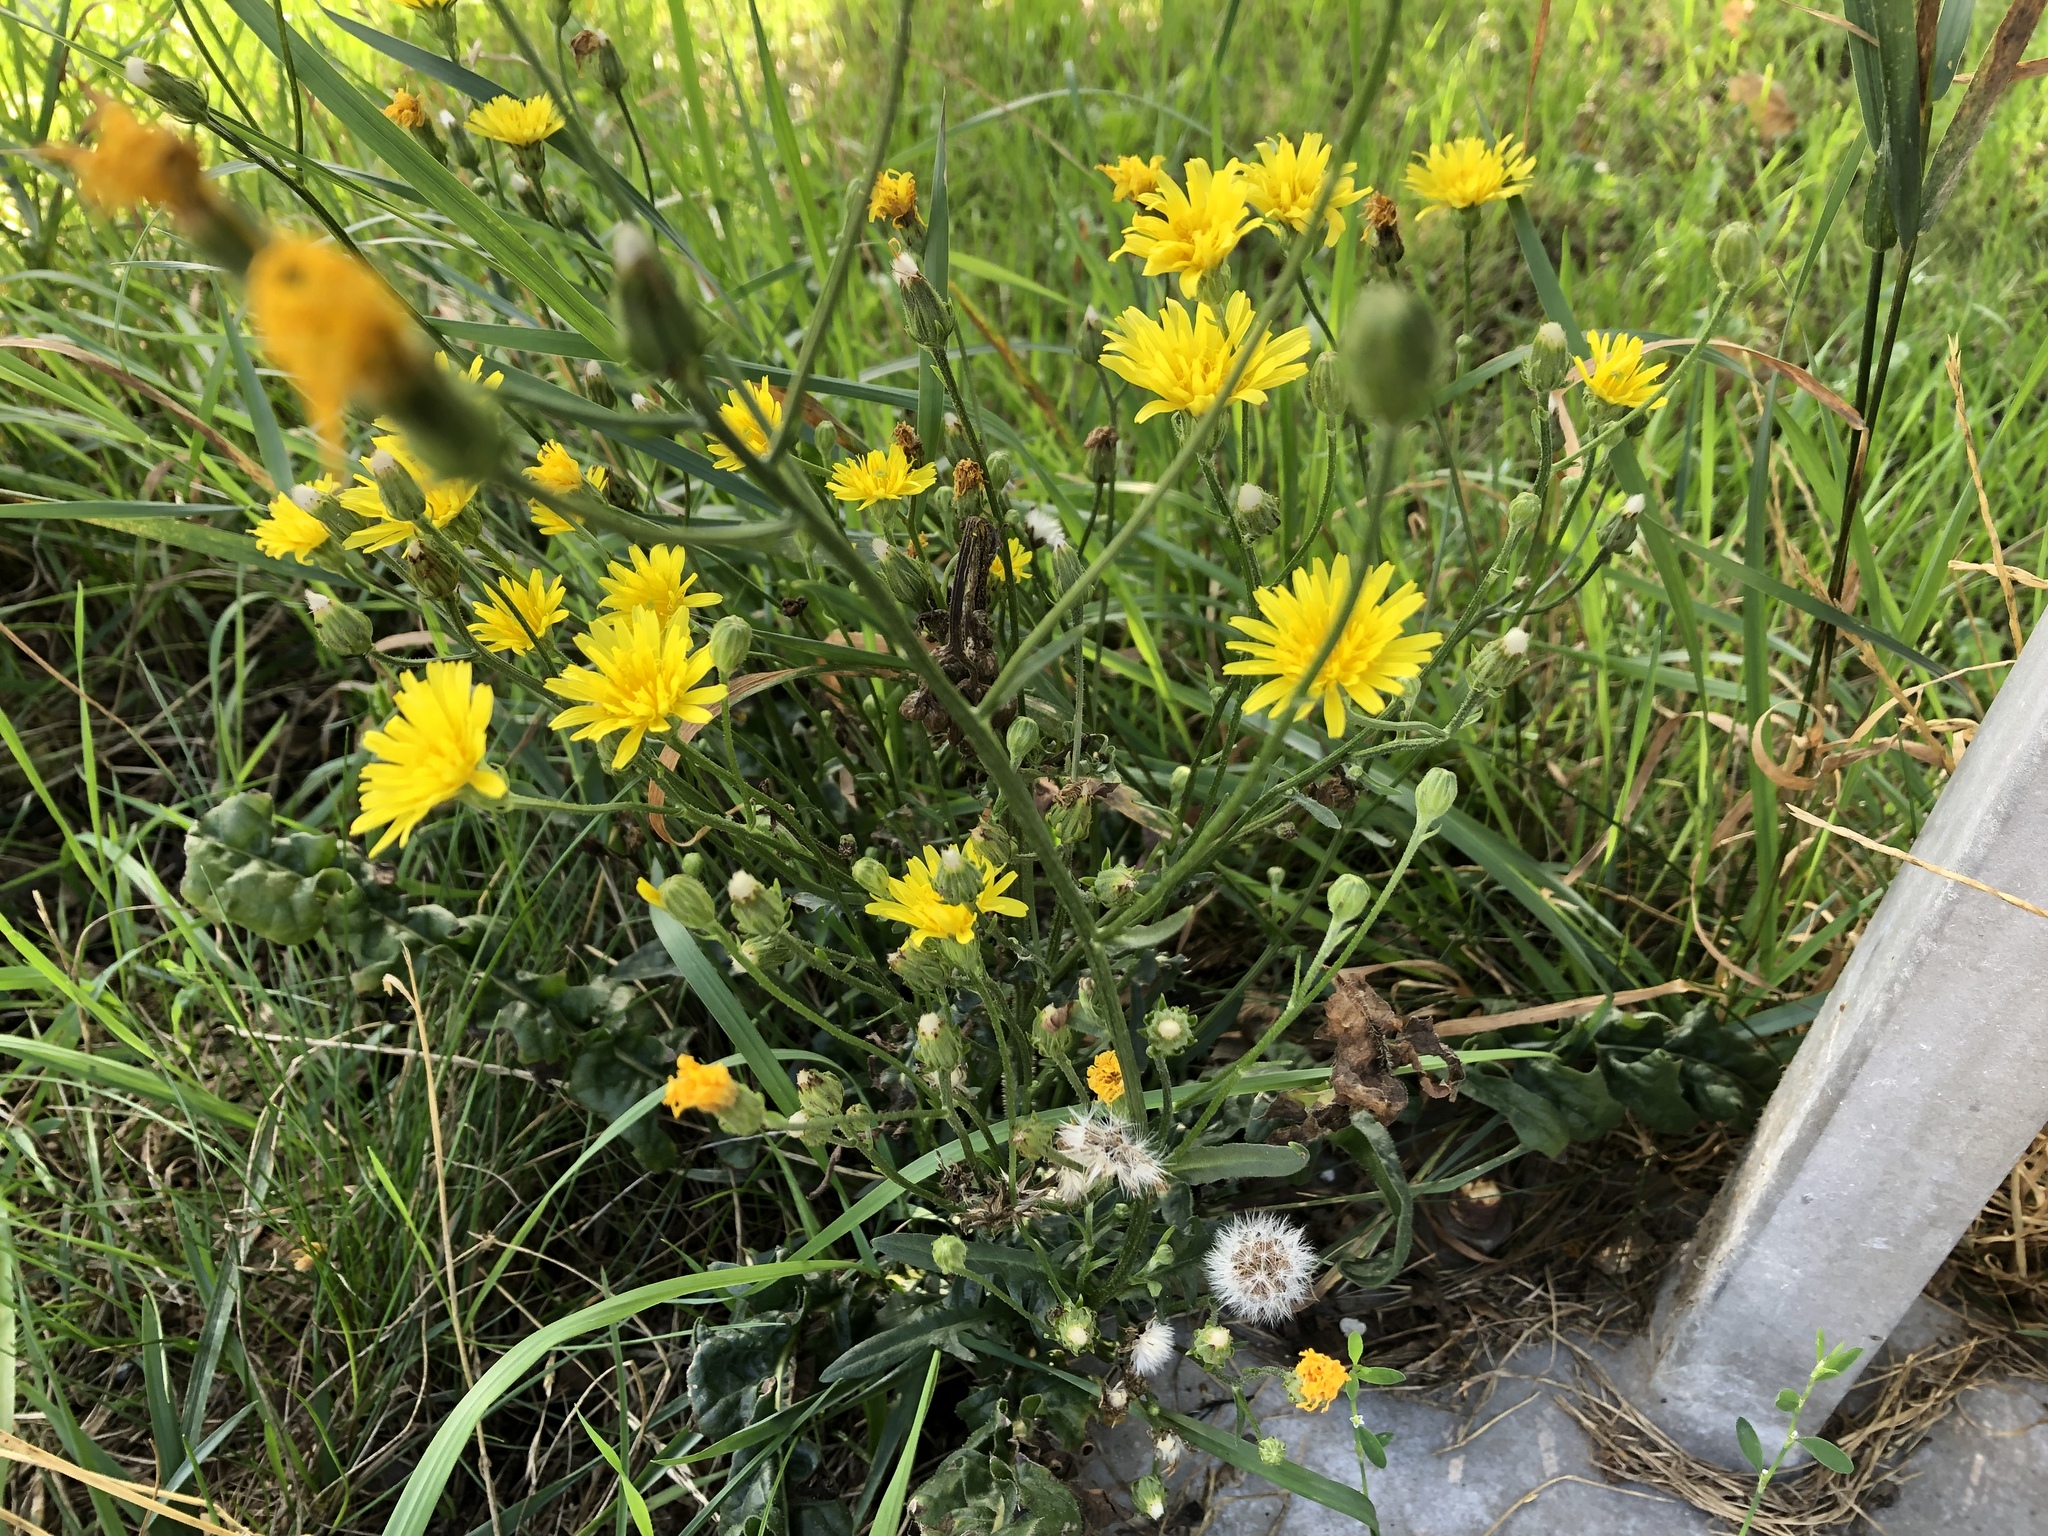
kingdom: Plantae
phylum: Tracheophyta
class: Magnoliopsida
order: Asterales
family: Asteraceae
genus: Crepis
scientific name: Crepis biennis
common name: Rough hawk's-beard
